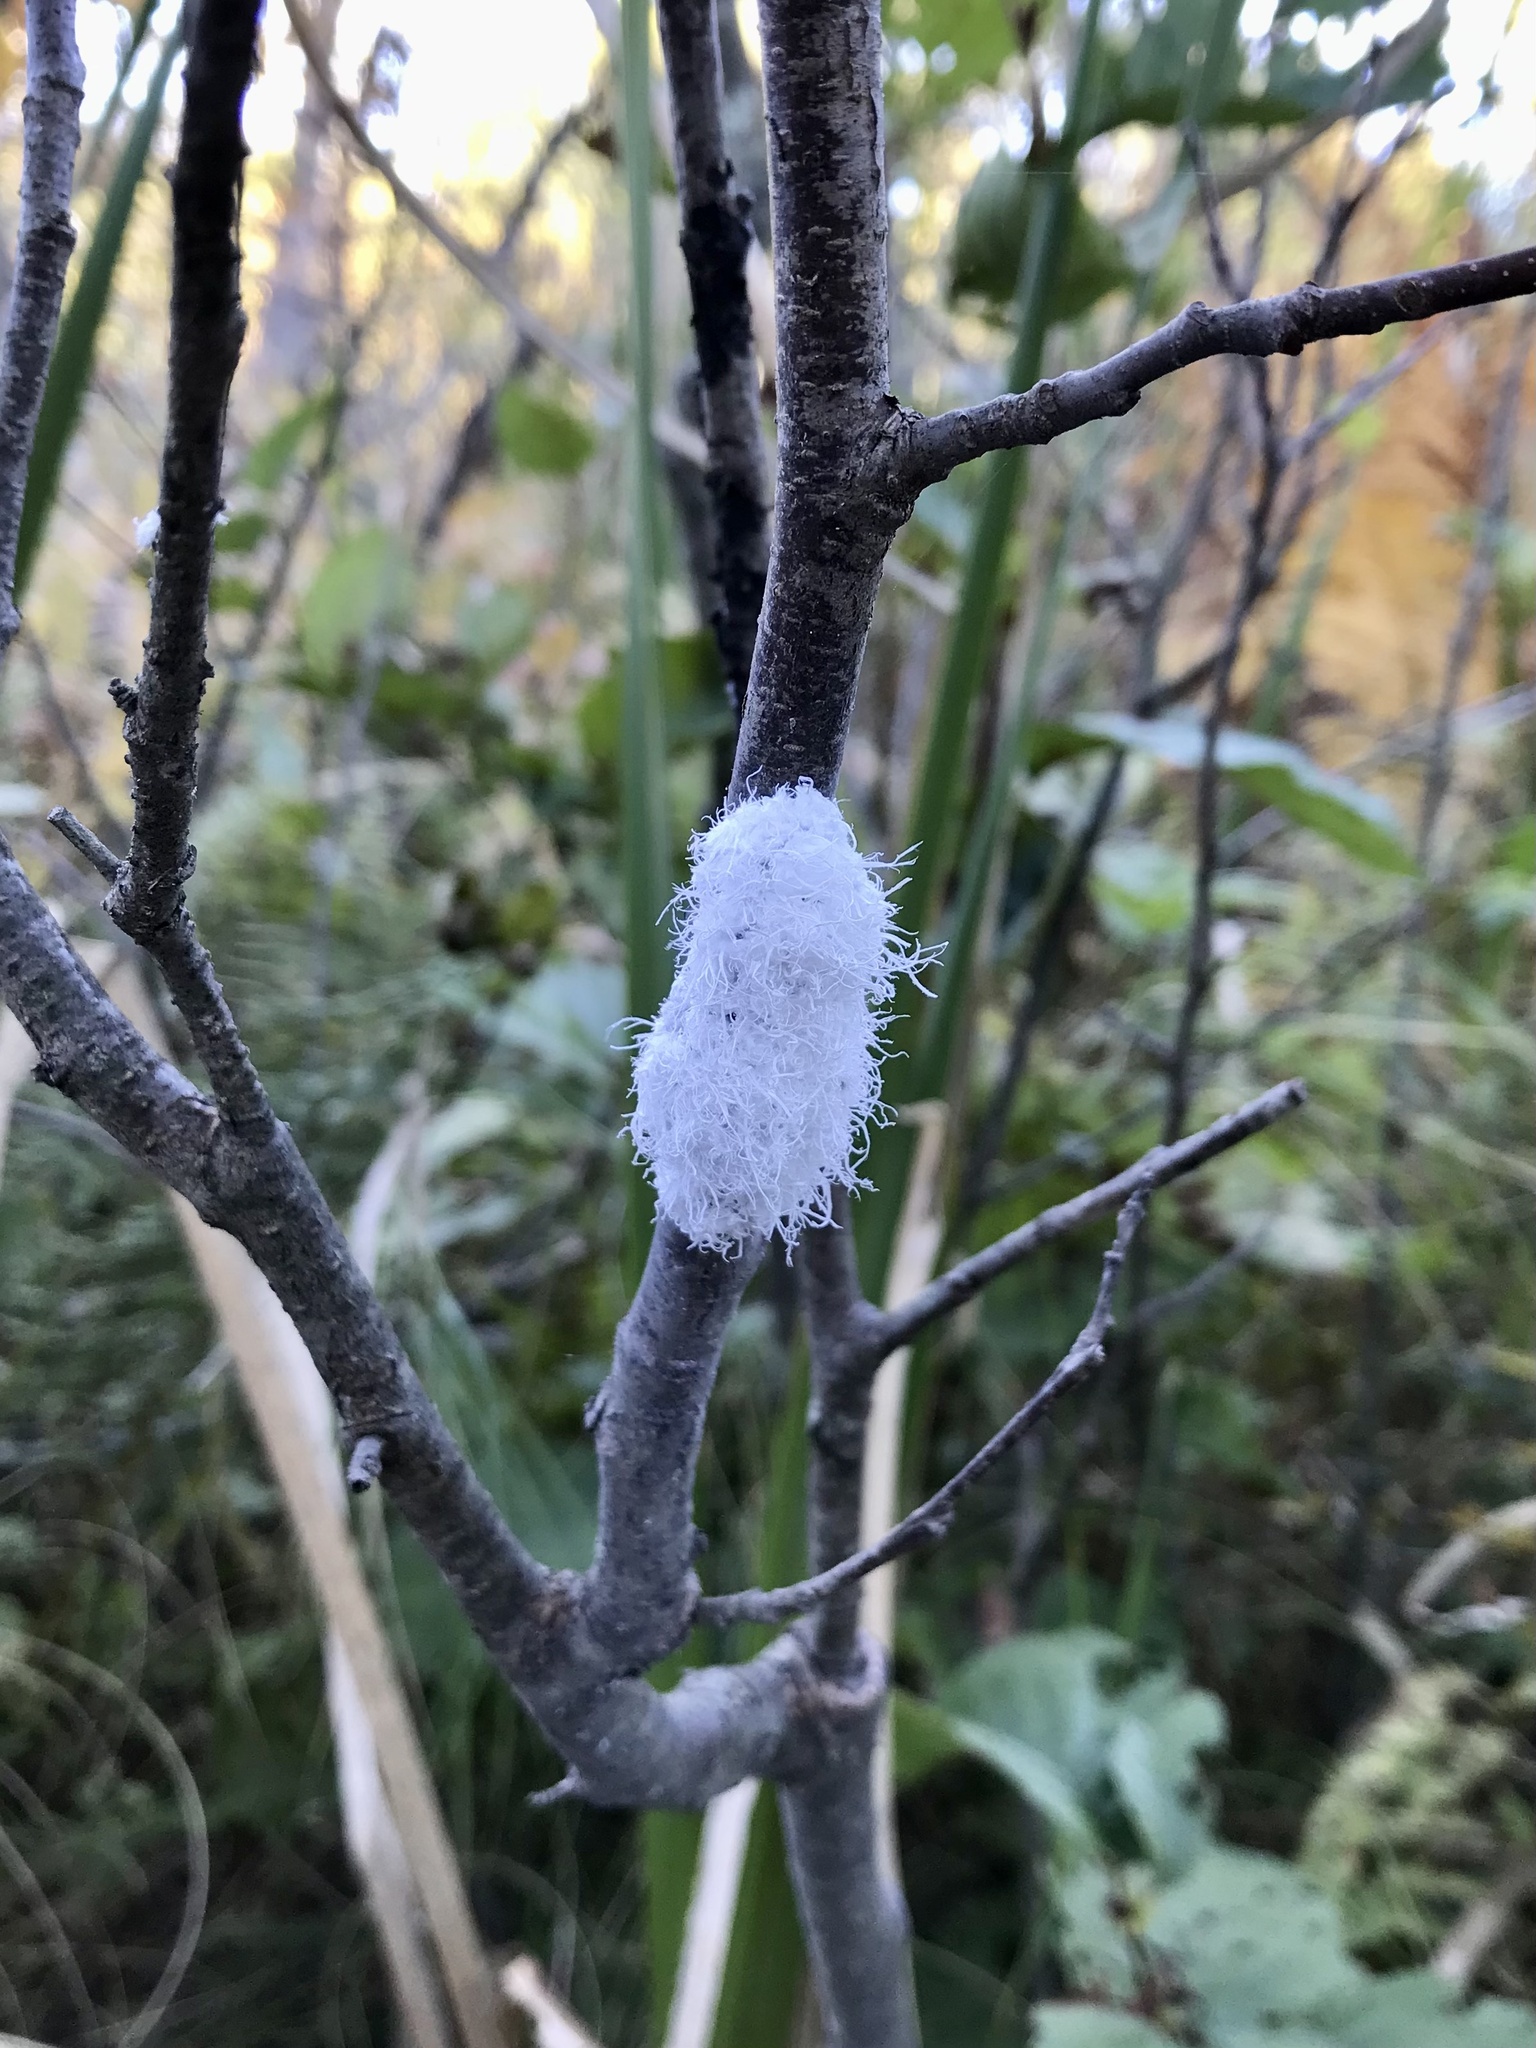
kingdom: Animalia
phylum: Arthropoda
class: Insecta
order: Hemiptera
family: Aphididae
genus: Prociphilus
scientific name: Prociphilus tessellatus
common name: Woolly alder aphid
